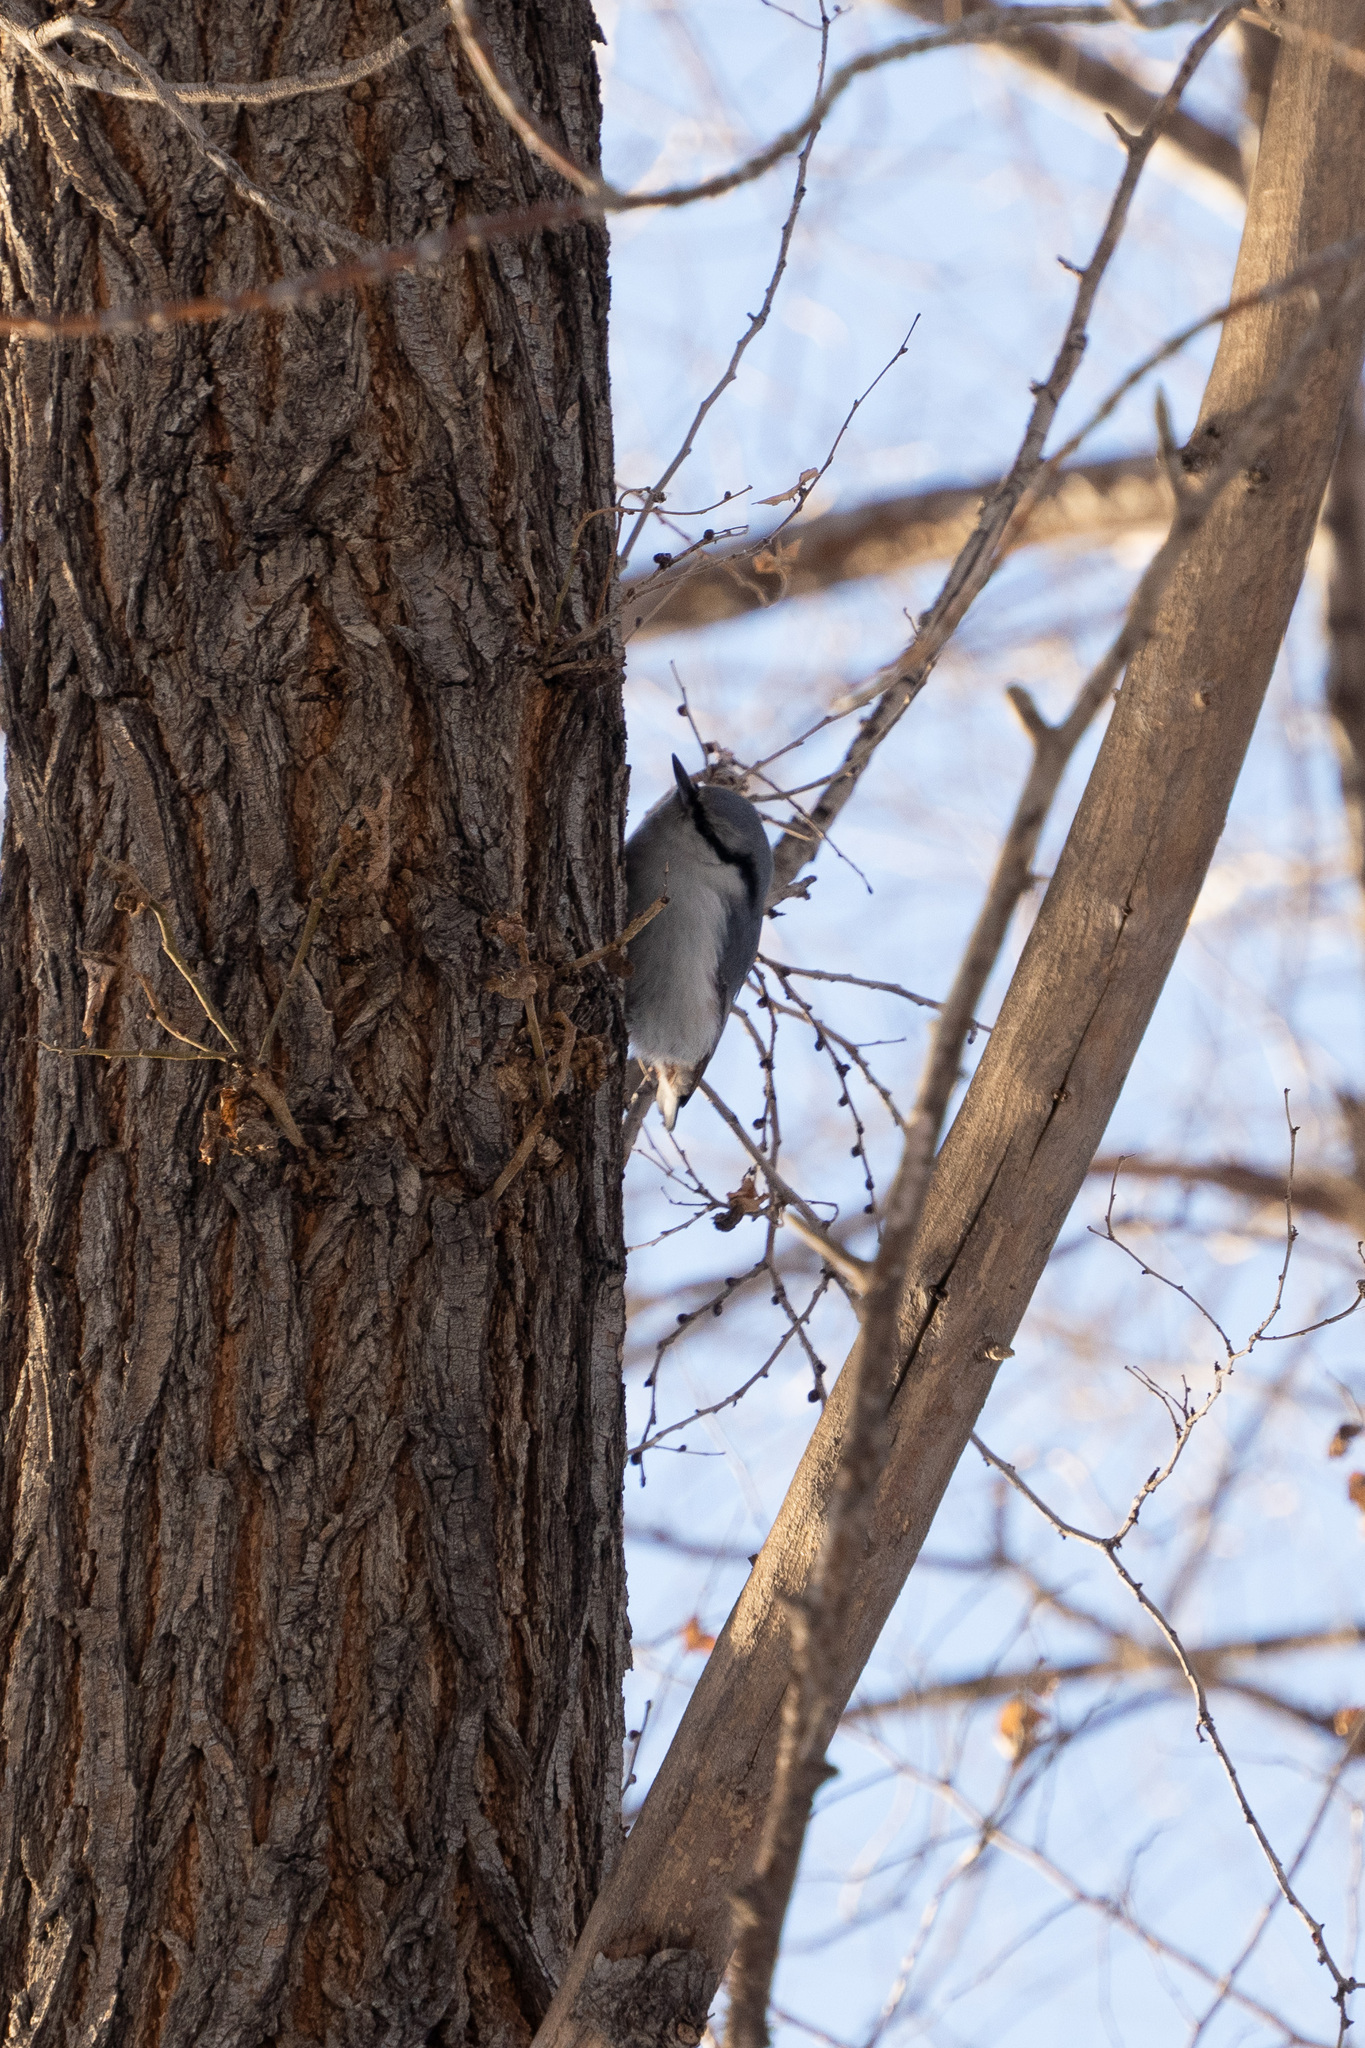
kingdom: Animalia
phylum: Chordata
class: Aves
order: Passeriformes
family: Sittidae
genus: Sitta
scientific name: Sitta europaea
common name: Eurasian nuthatch
